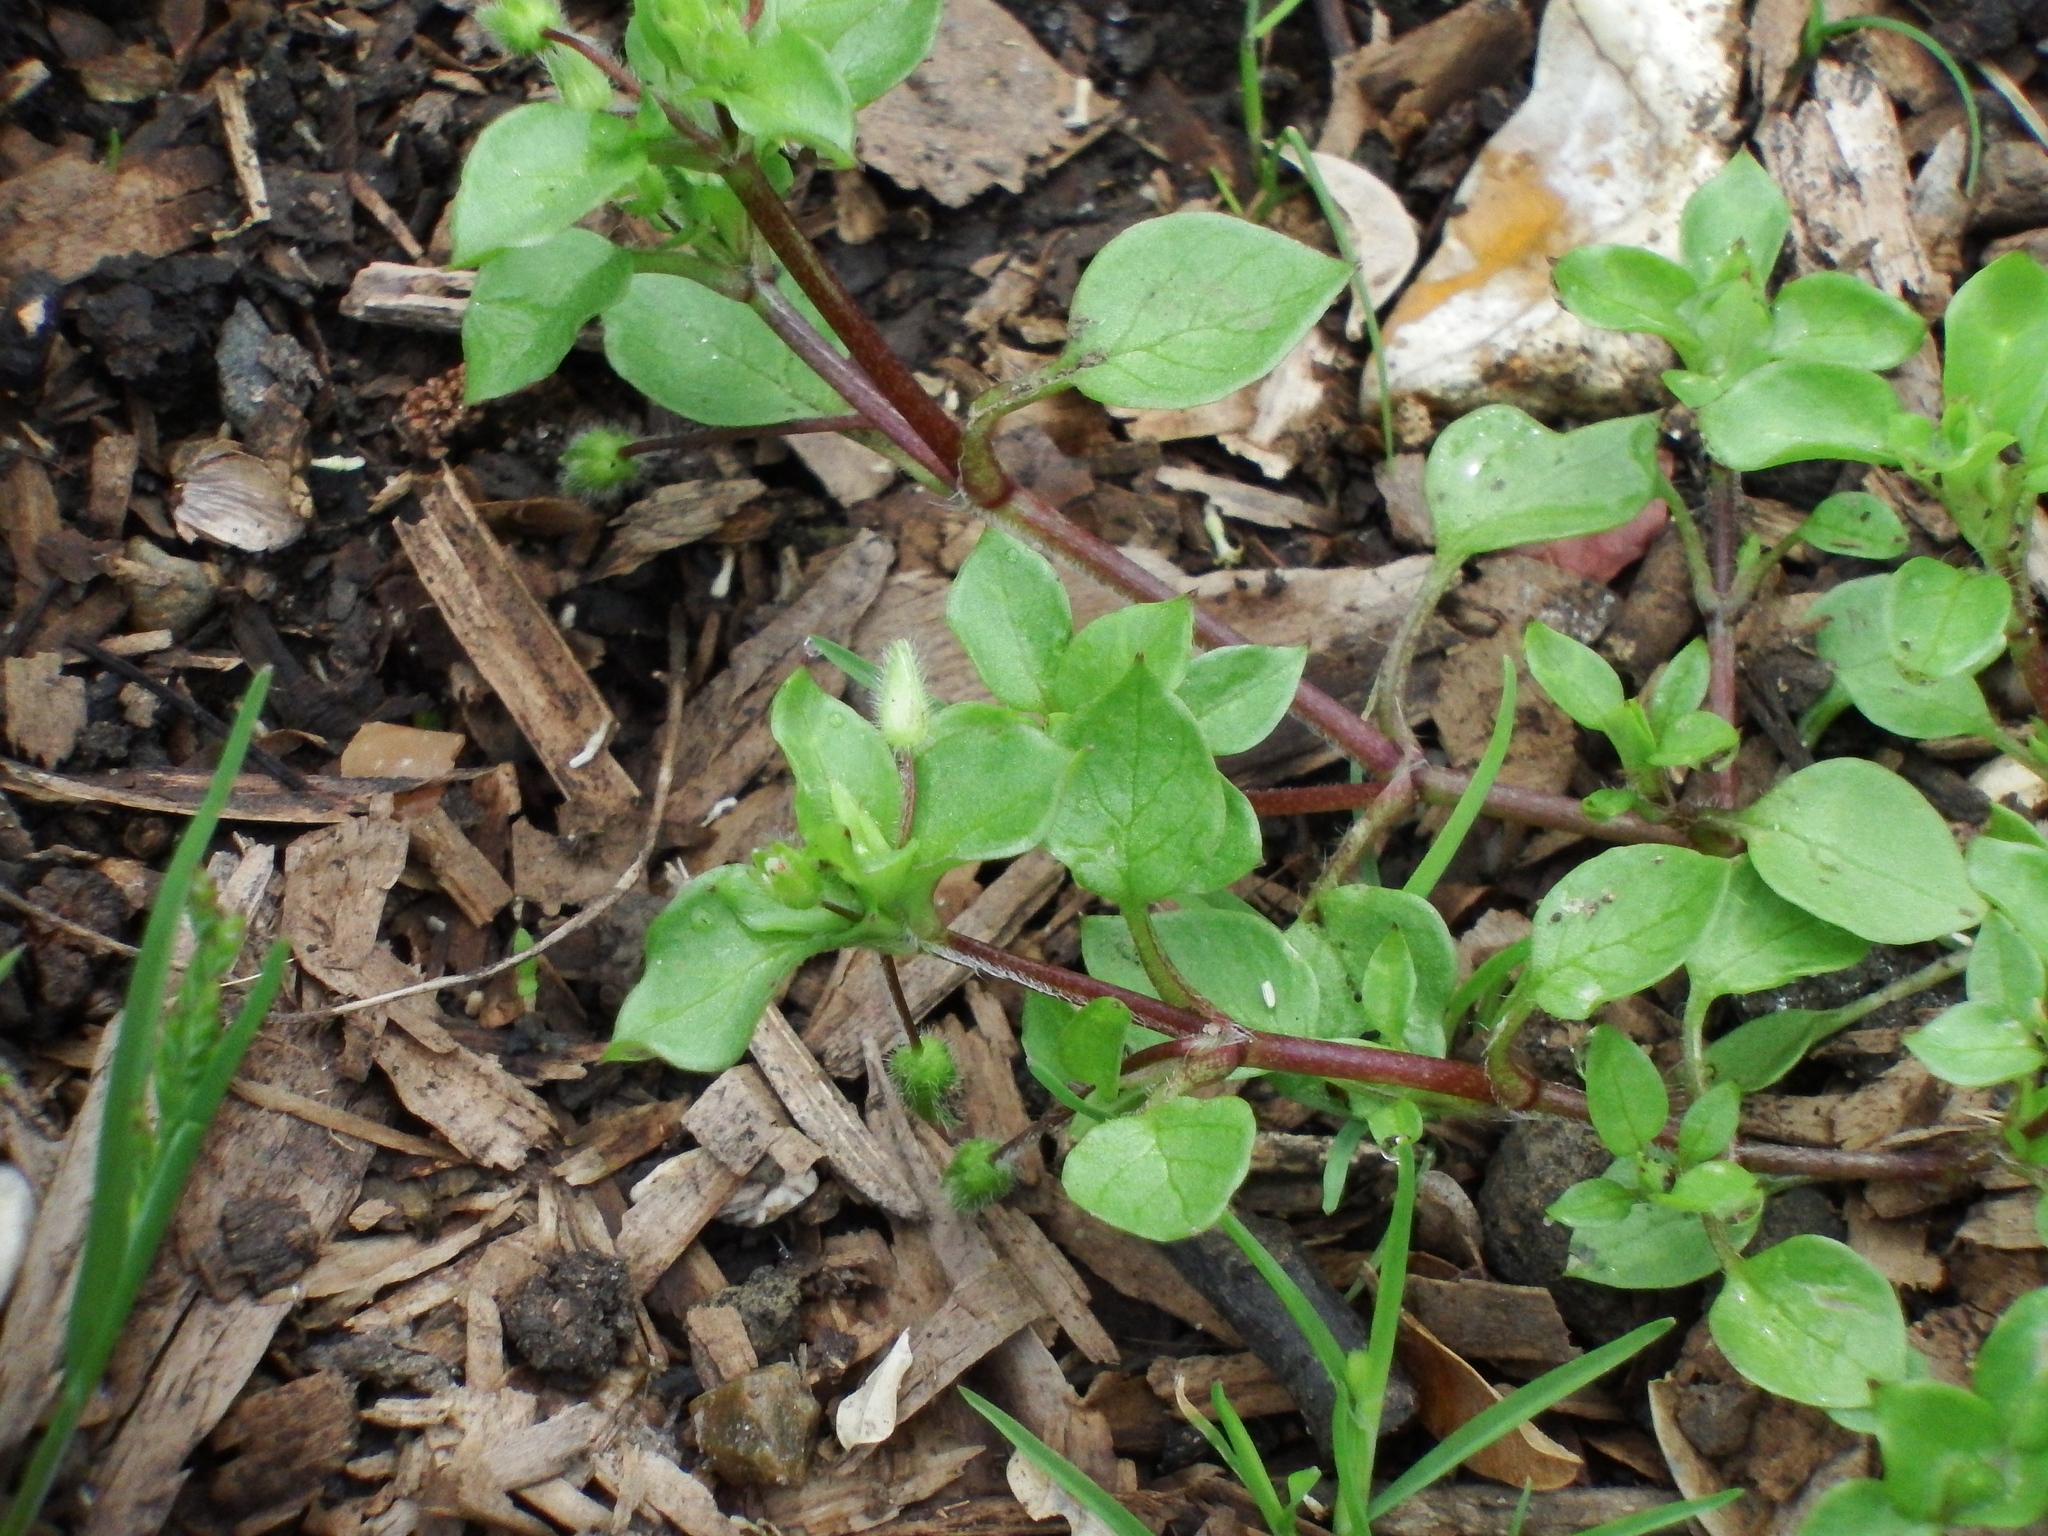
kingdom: Plantae
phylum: Tracheophyta
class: Magnoliopsida
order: Caryophyllales
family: Caryophyllaceae
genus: Stellaria
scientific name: Stellaria media
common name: Common chickweed
